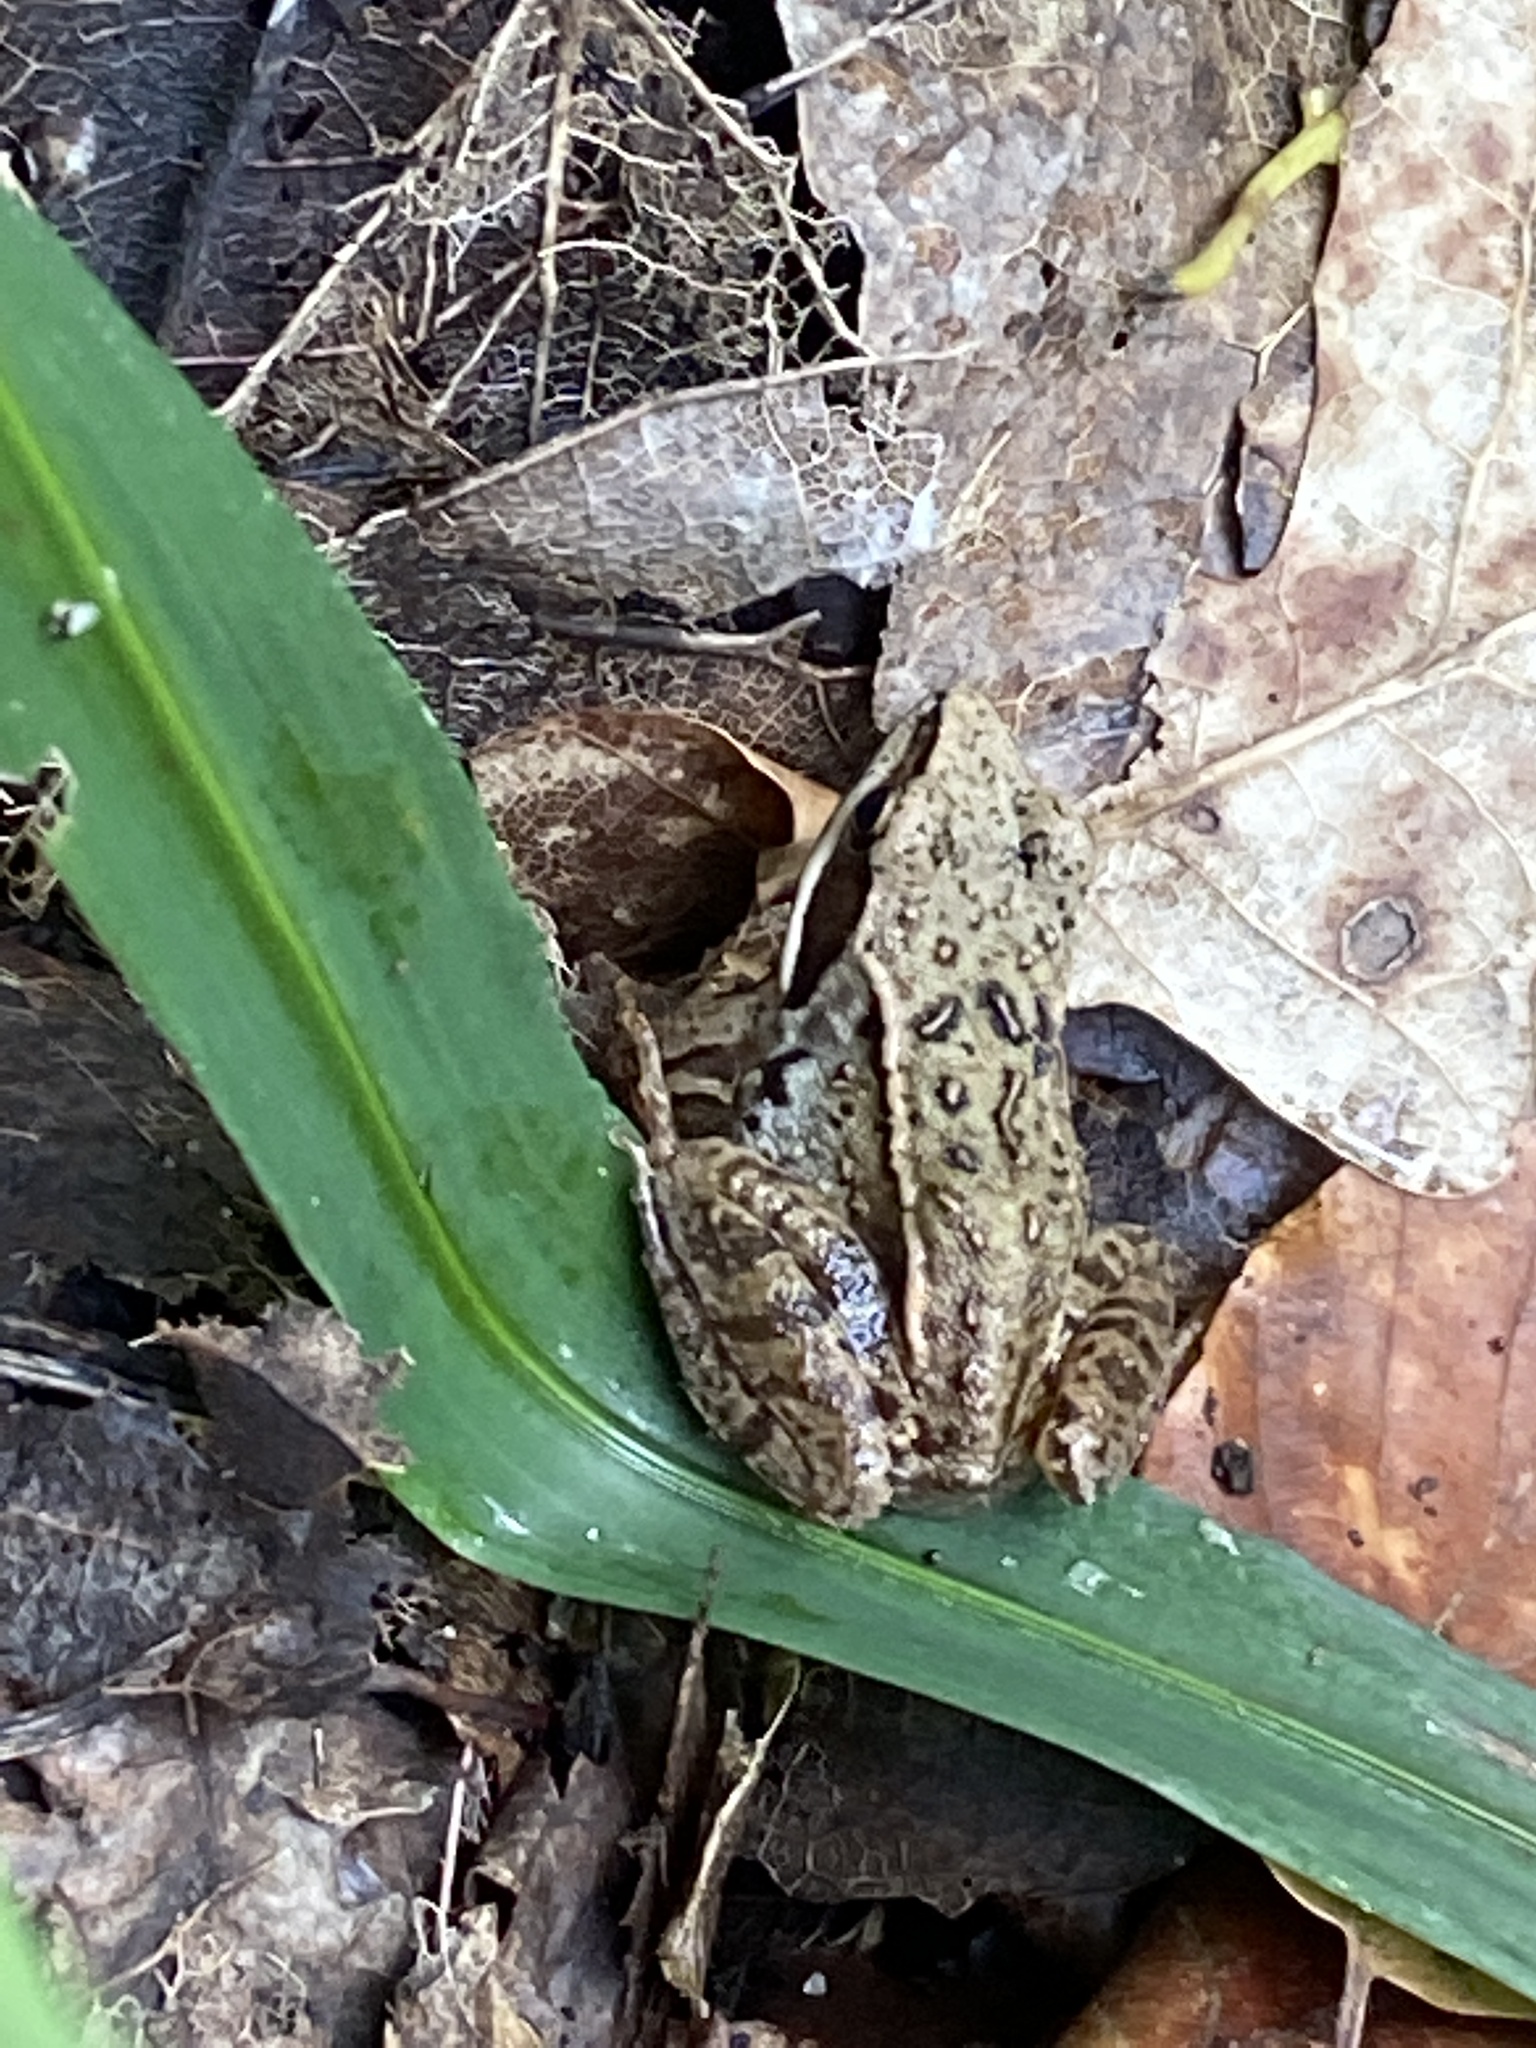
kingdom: Animalia
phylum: Chordata
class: Amphibia
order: Anura
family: Ranidae
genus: Rana
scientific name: Rana arvalis
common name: Moor frog
